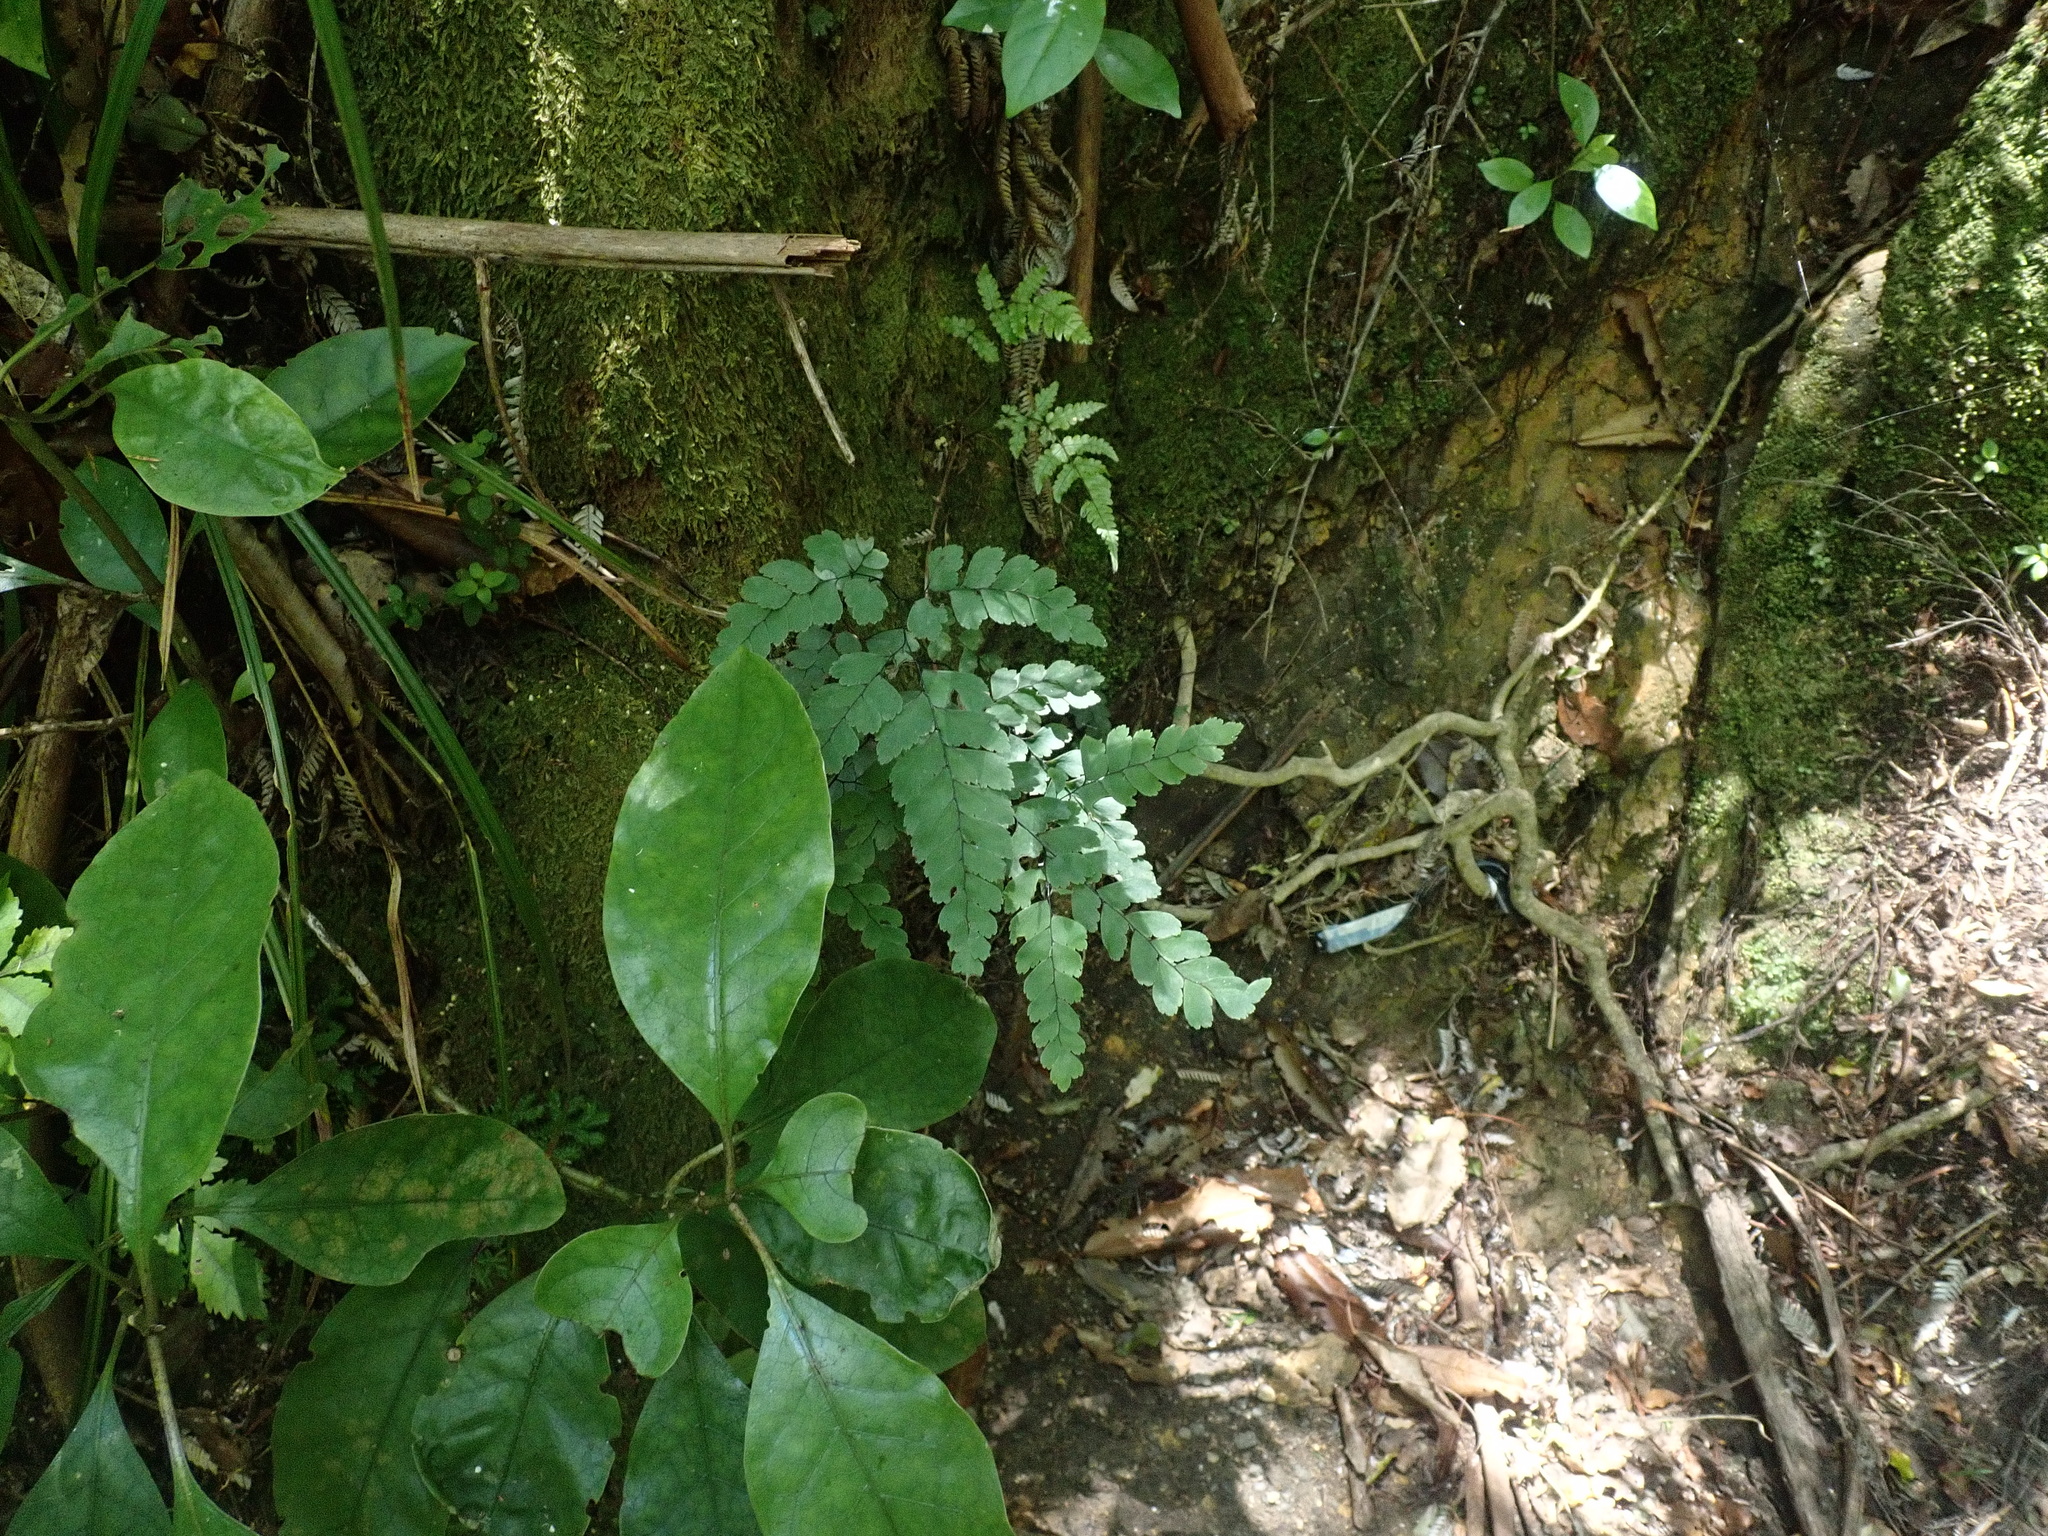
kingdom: Plantae
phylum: Tracheophyta
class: Polypodiopsida
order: Polypodiales
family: Pteridaceae
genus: Adiantum
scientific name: Adiantum cunninghamii
